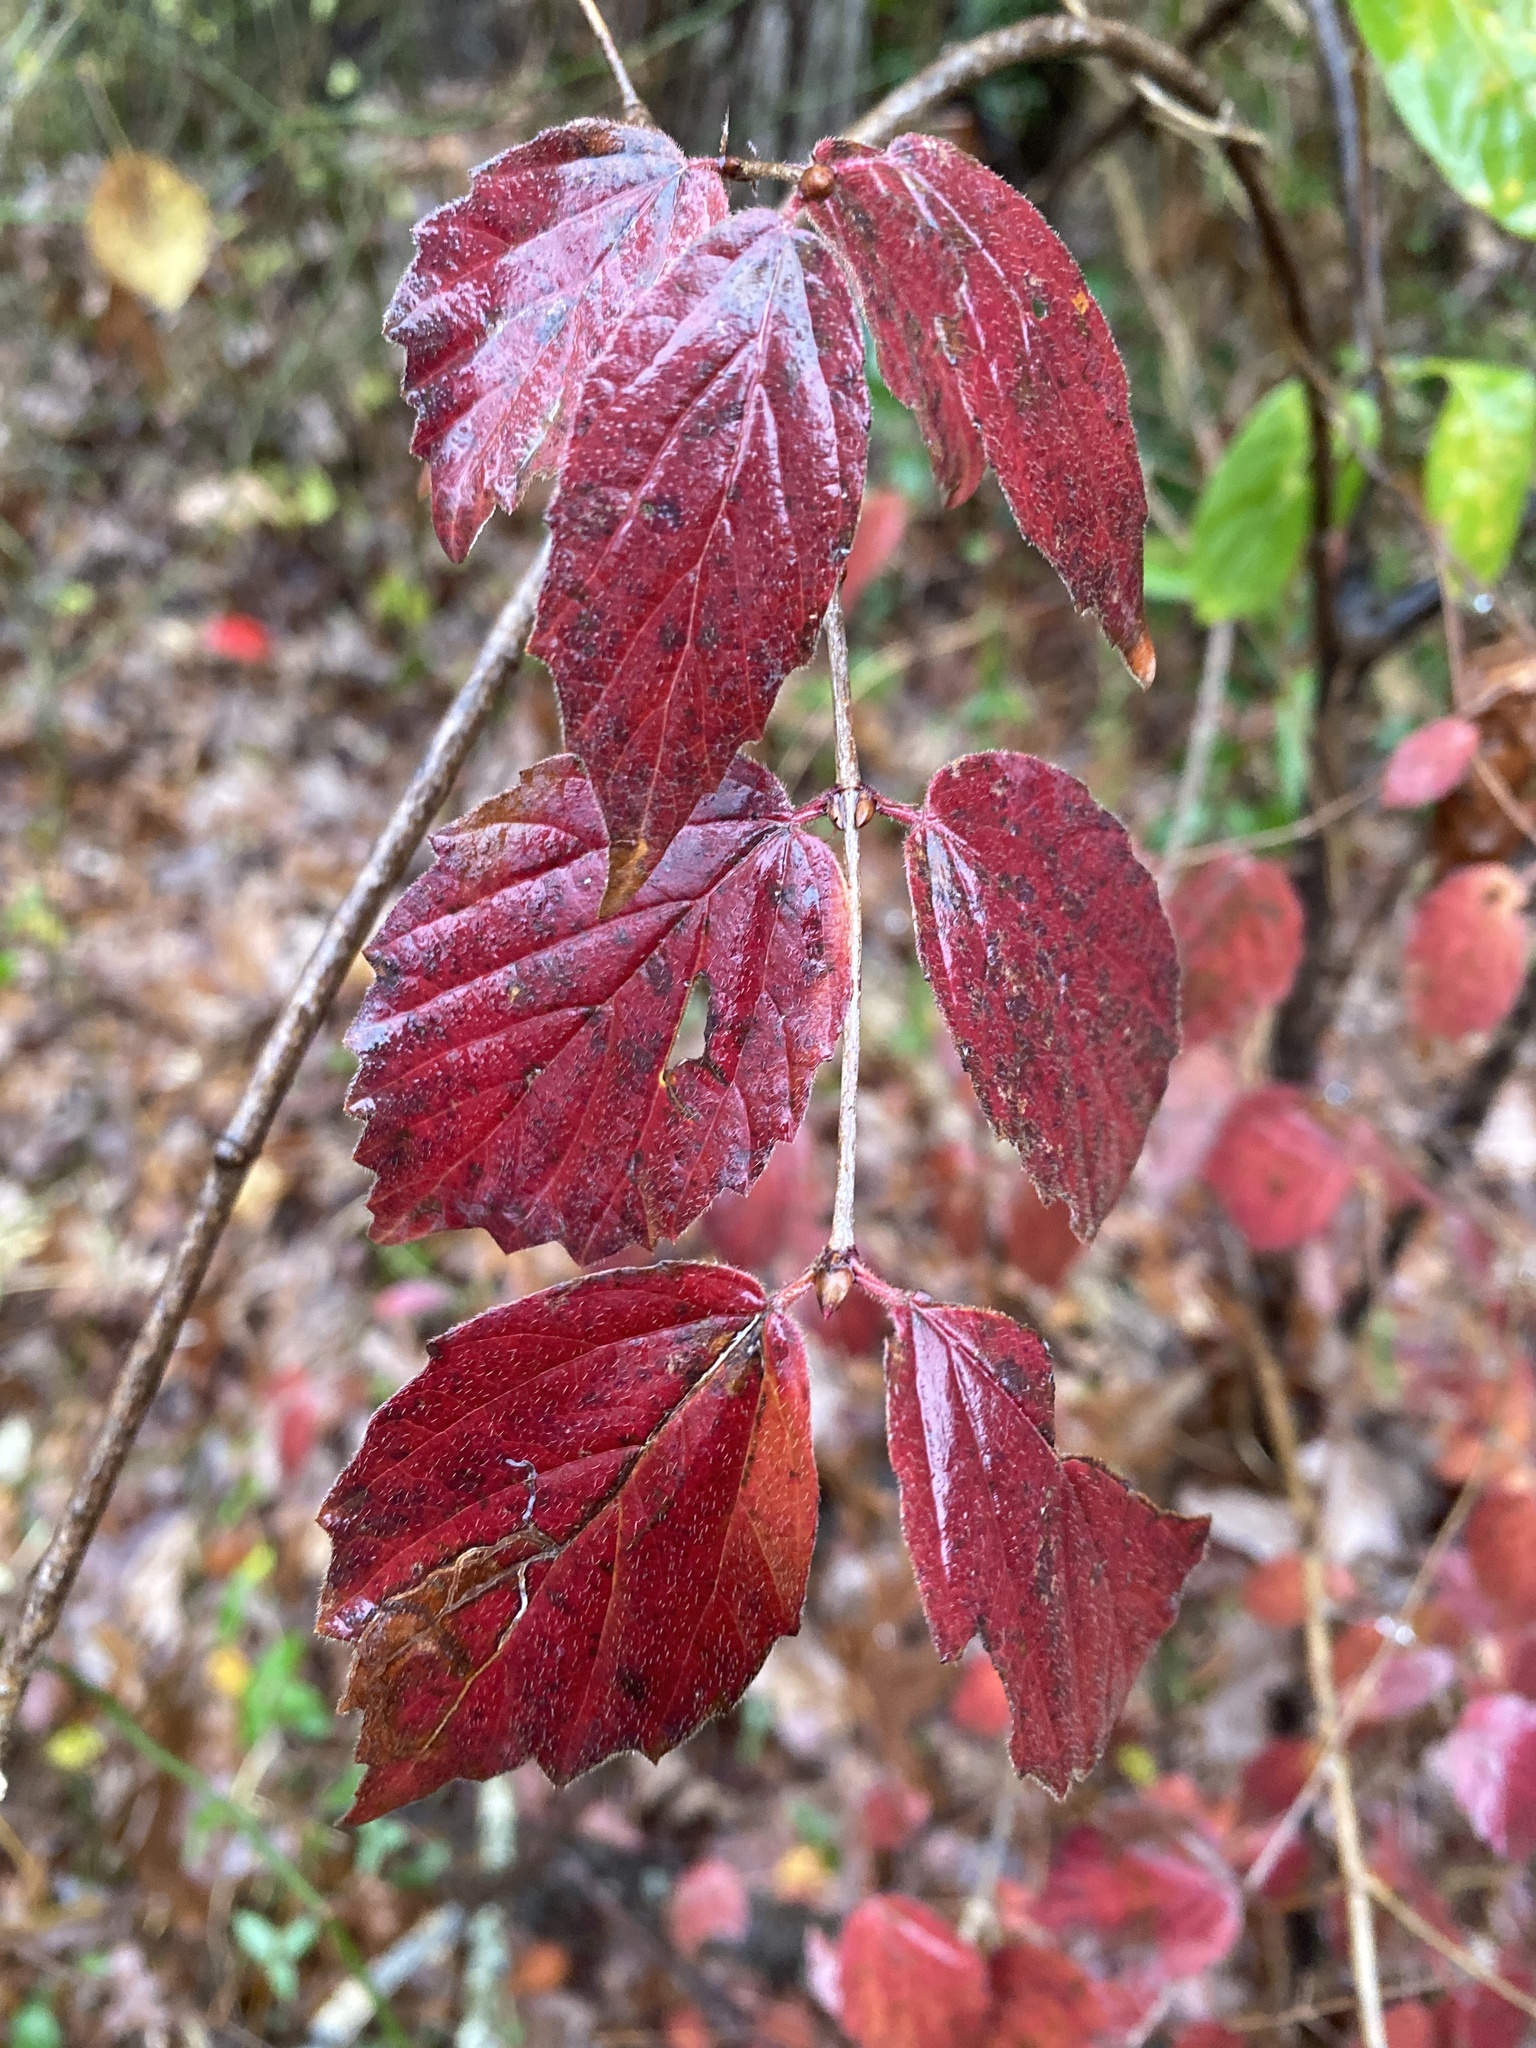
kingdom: Plantae
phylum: Tracheophyta
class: Magnoliopsida
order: Dipsacales
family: Viburnaceae
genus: Viburnum
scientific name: Viburnum rafinesqueanum
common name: Downy arrow-wood
